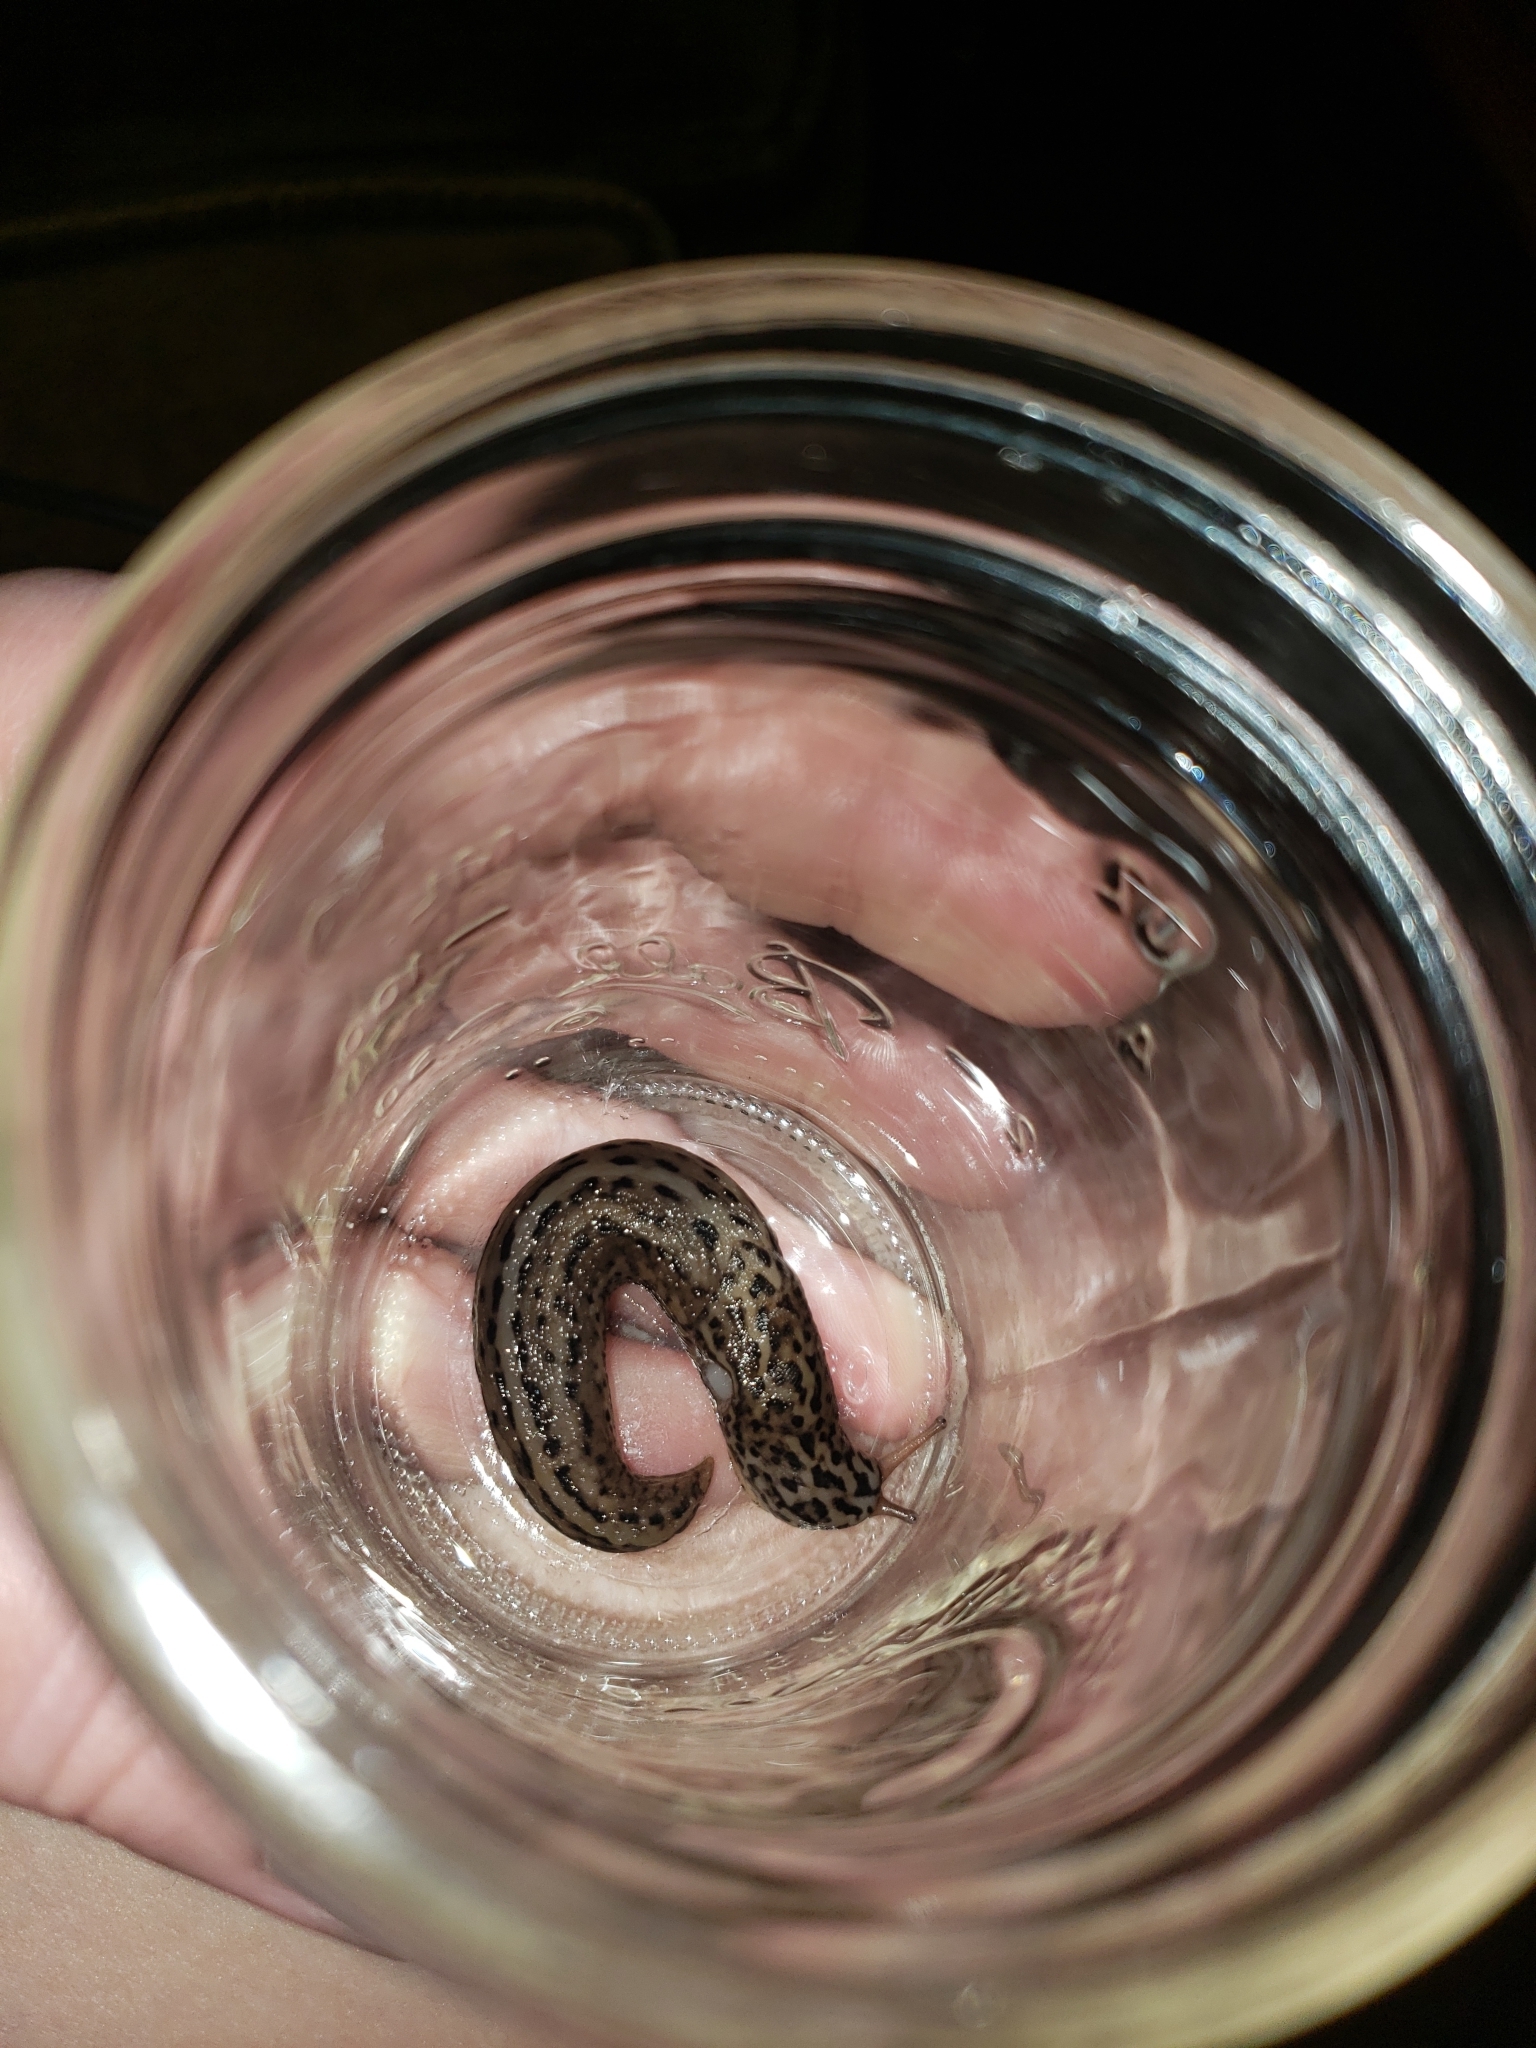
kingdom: Animalia
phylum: Mollusca
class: Gastropoda
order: Stylommatophora
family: Limacidae
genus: Limax
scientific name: Limax maximus
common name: Great grey slug
